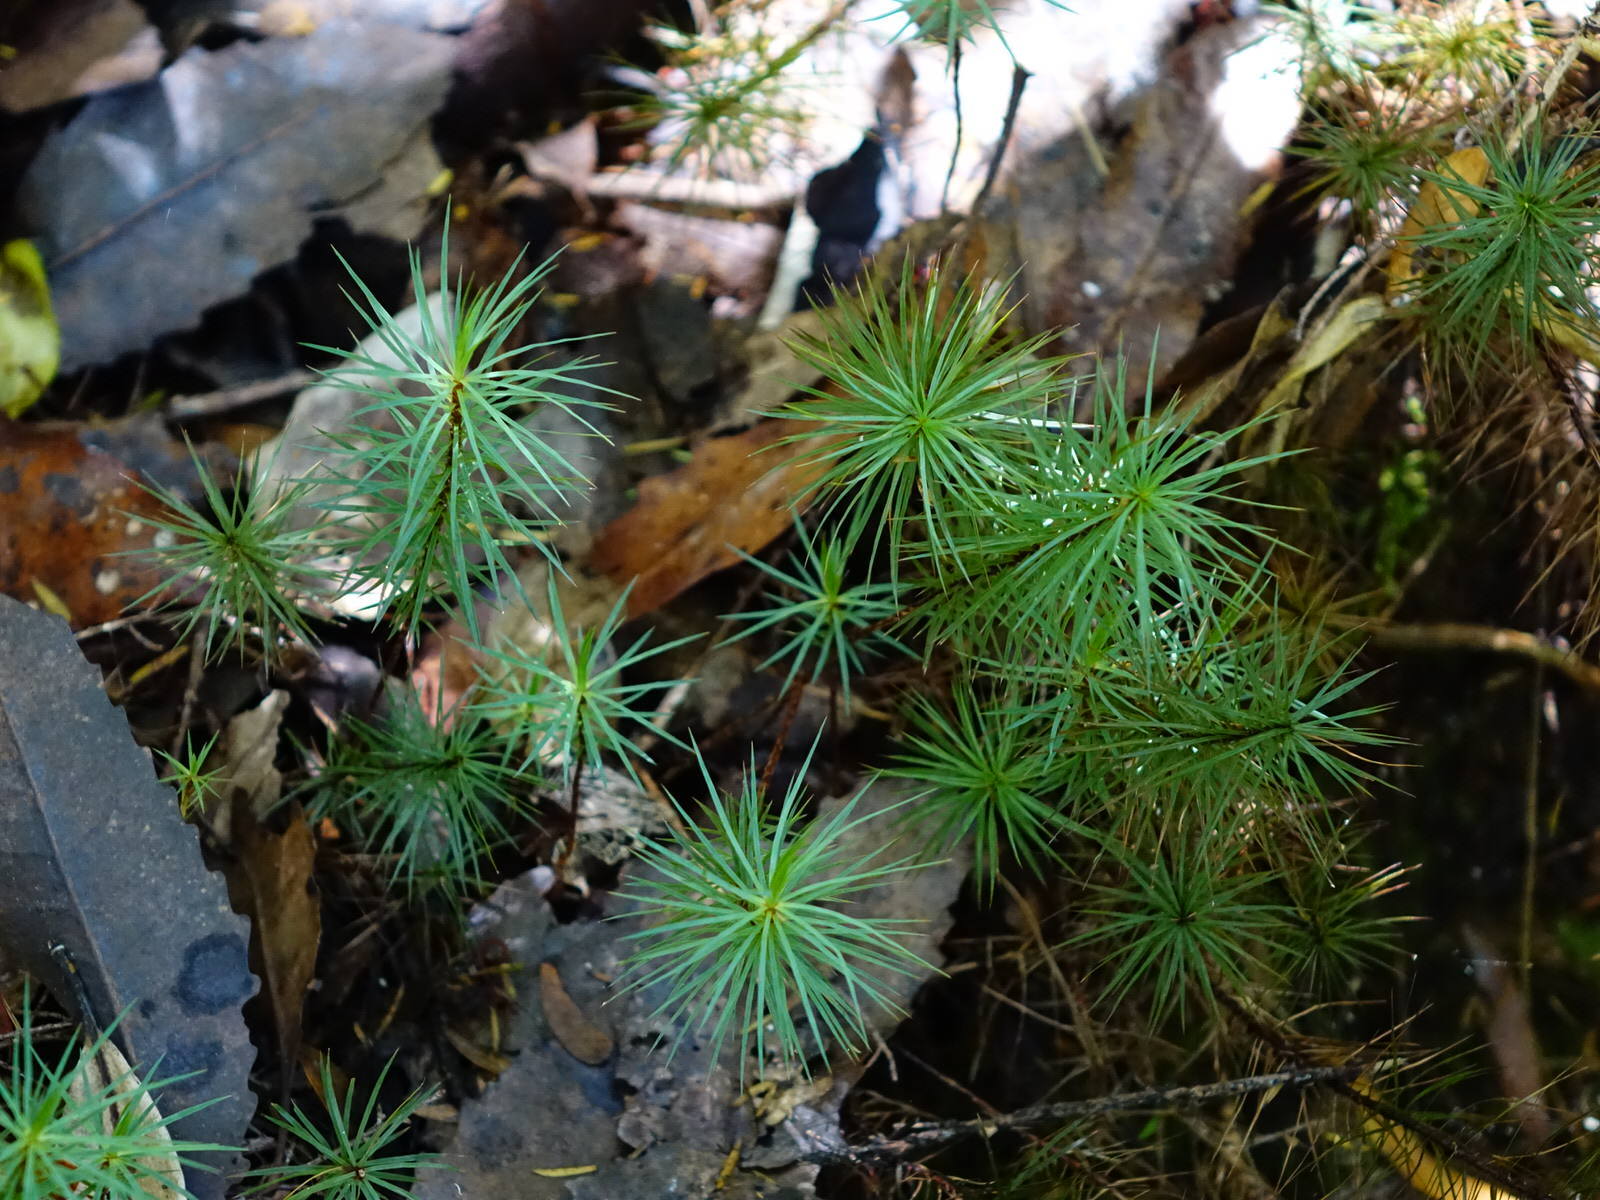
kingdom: Plantae
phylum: Bryophyta
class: Polytrichopsida
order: Polytrichales
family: Polytrichaceae
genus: Dawsonia
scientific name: Dawsonia superba
